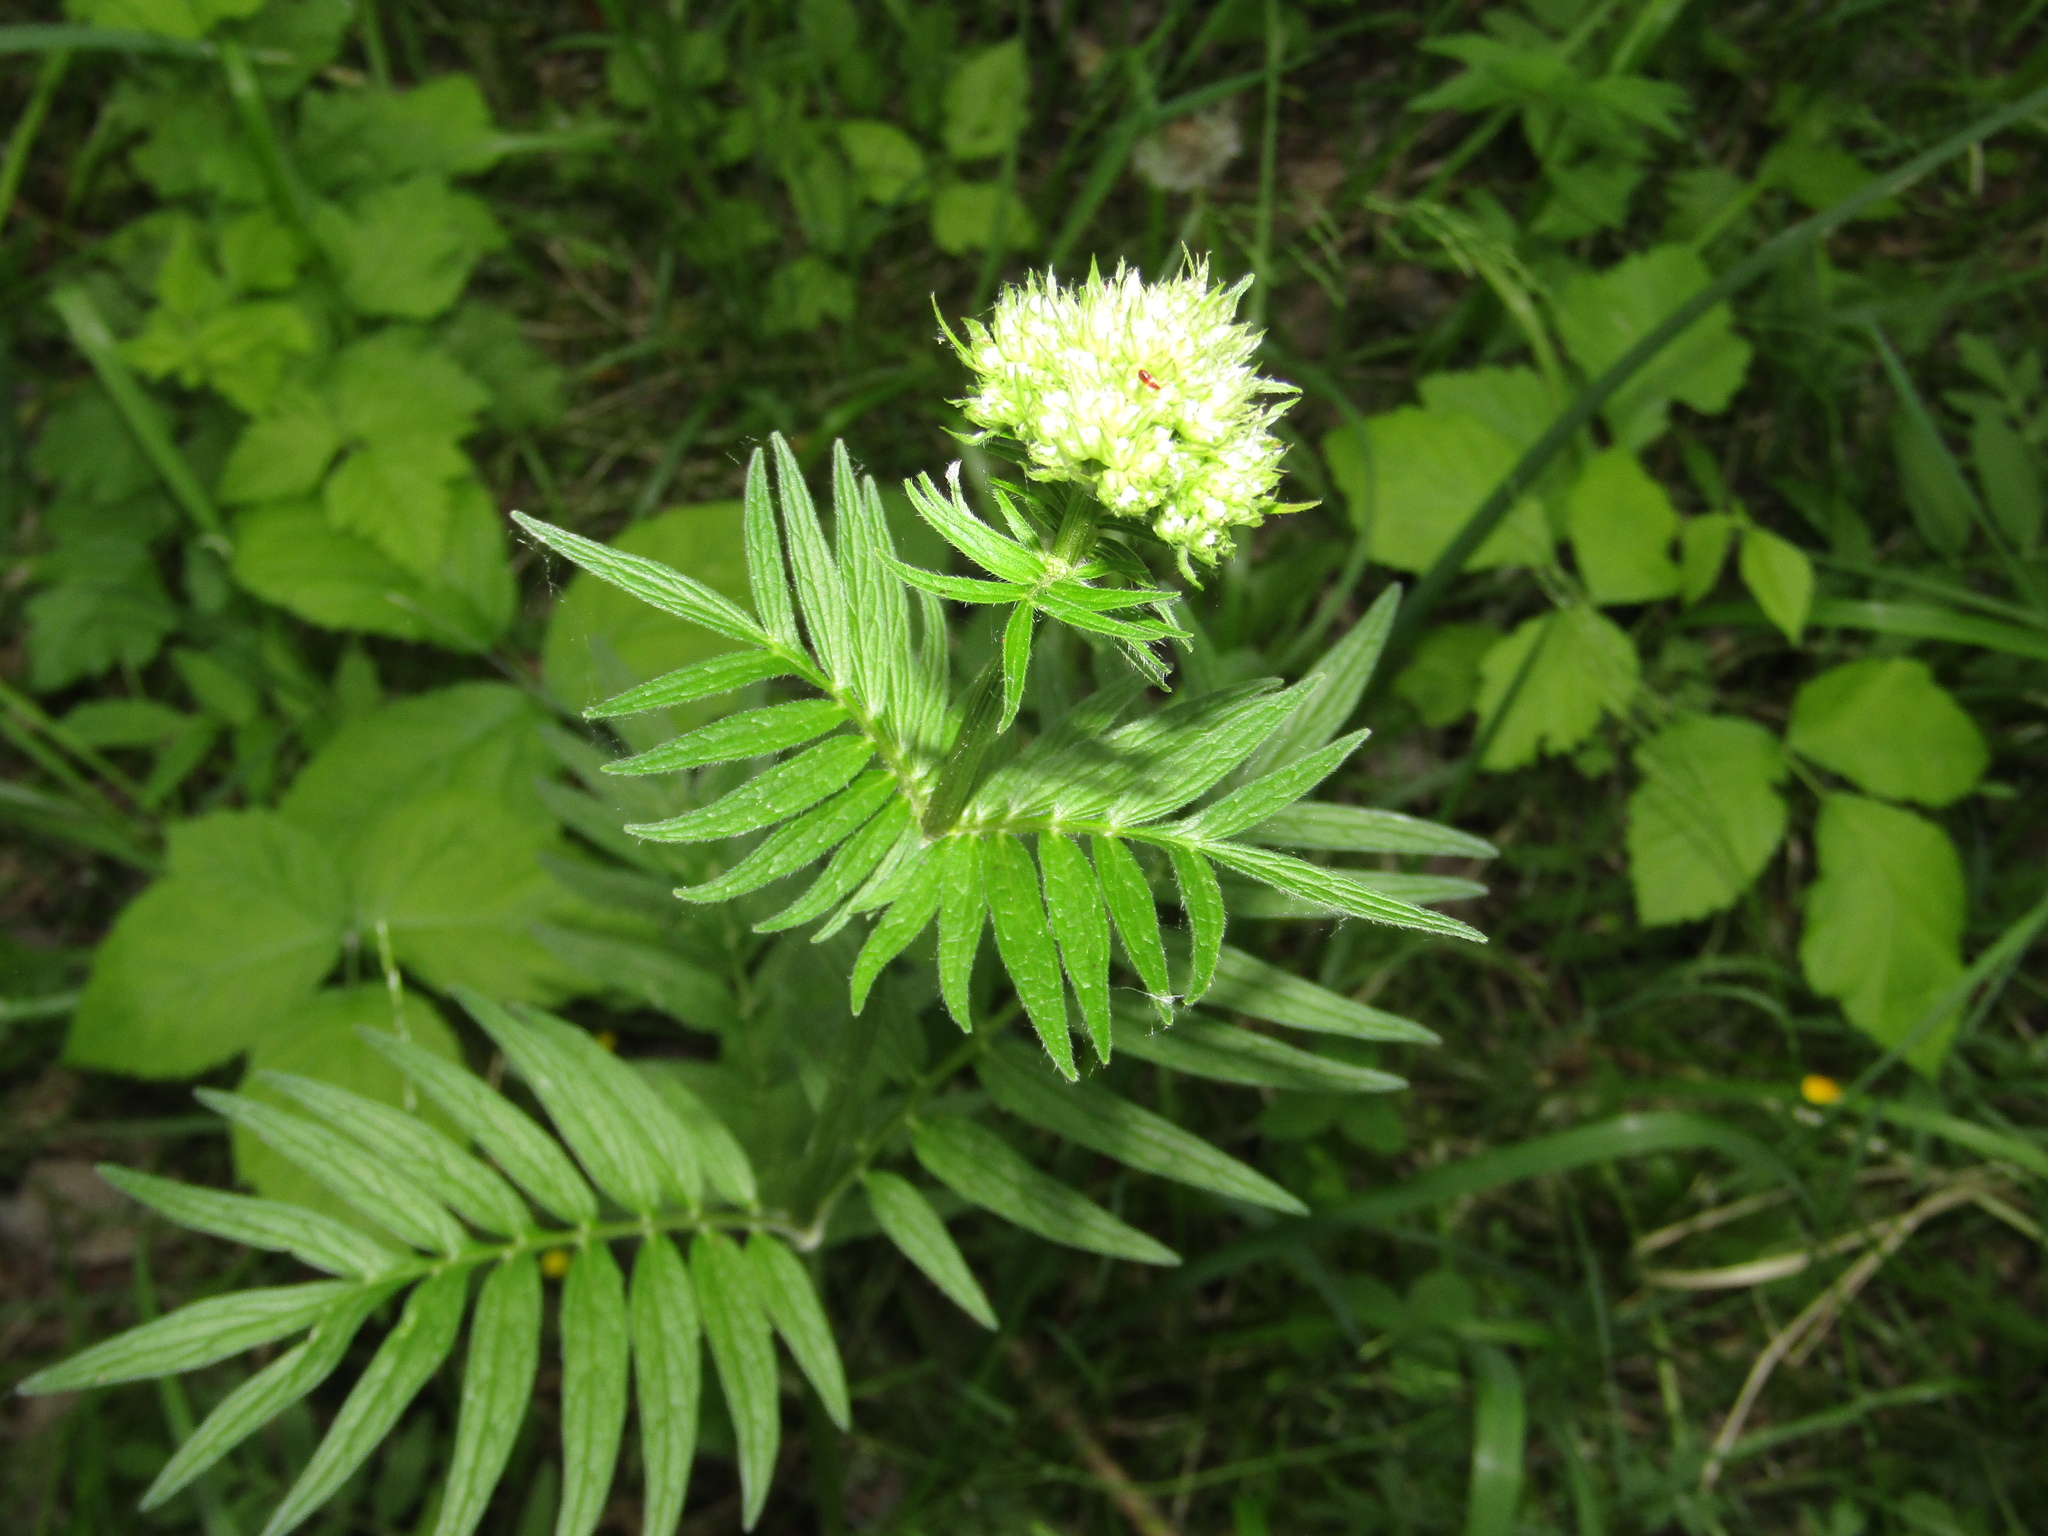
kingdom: Plantae
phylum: Tracheophyta
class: Magnoliopsida
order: Dipsacales
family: Caprifoliaceae
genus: Valeriana
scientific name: Valeriana officinalis
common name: Common valerian
